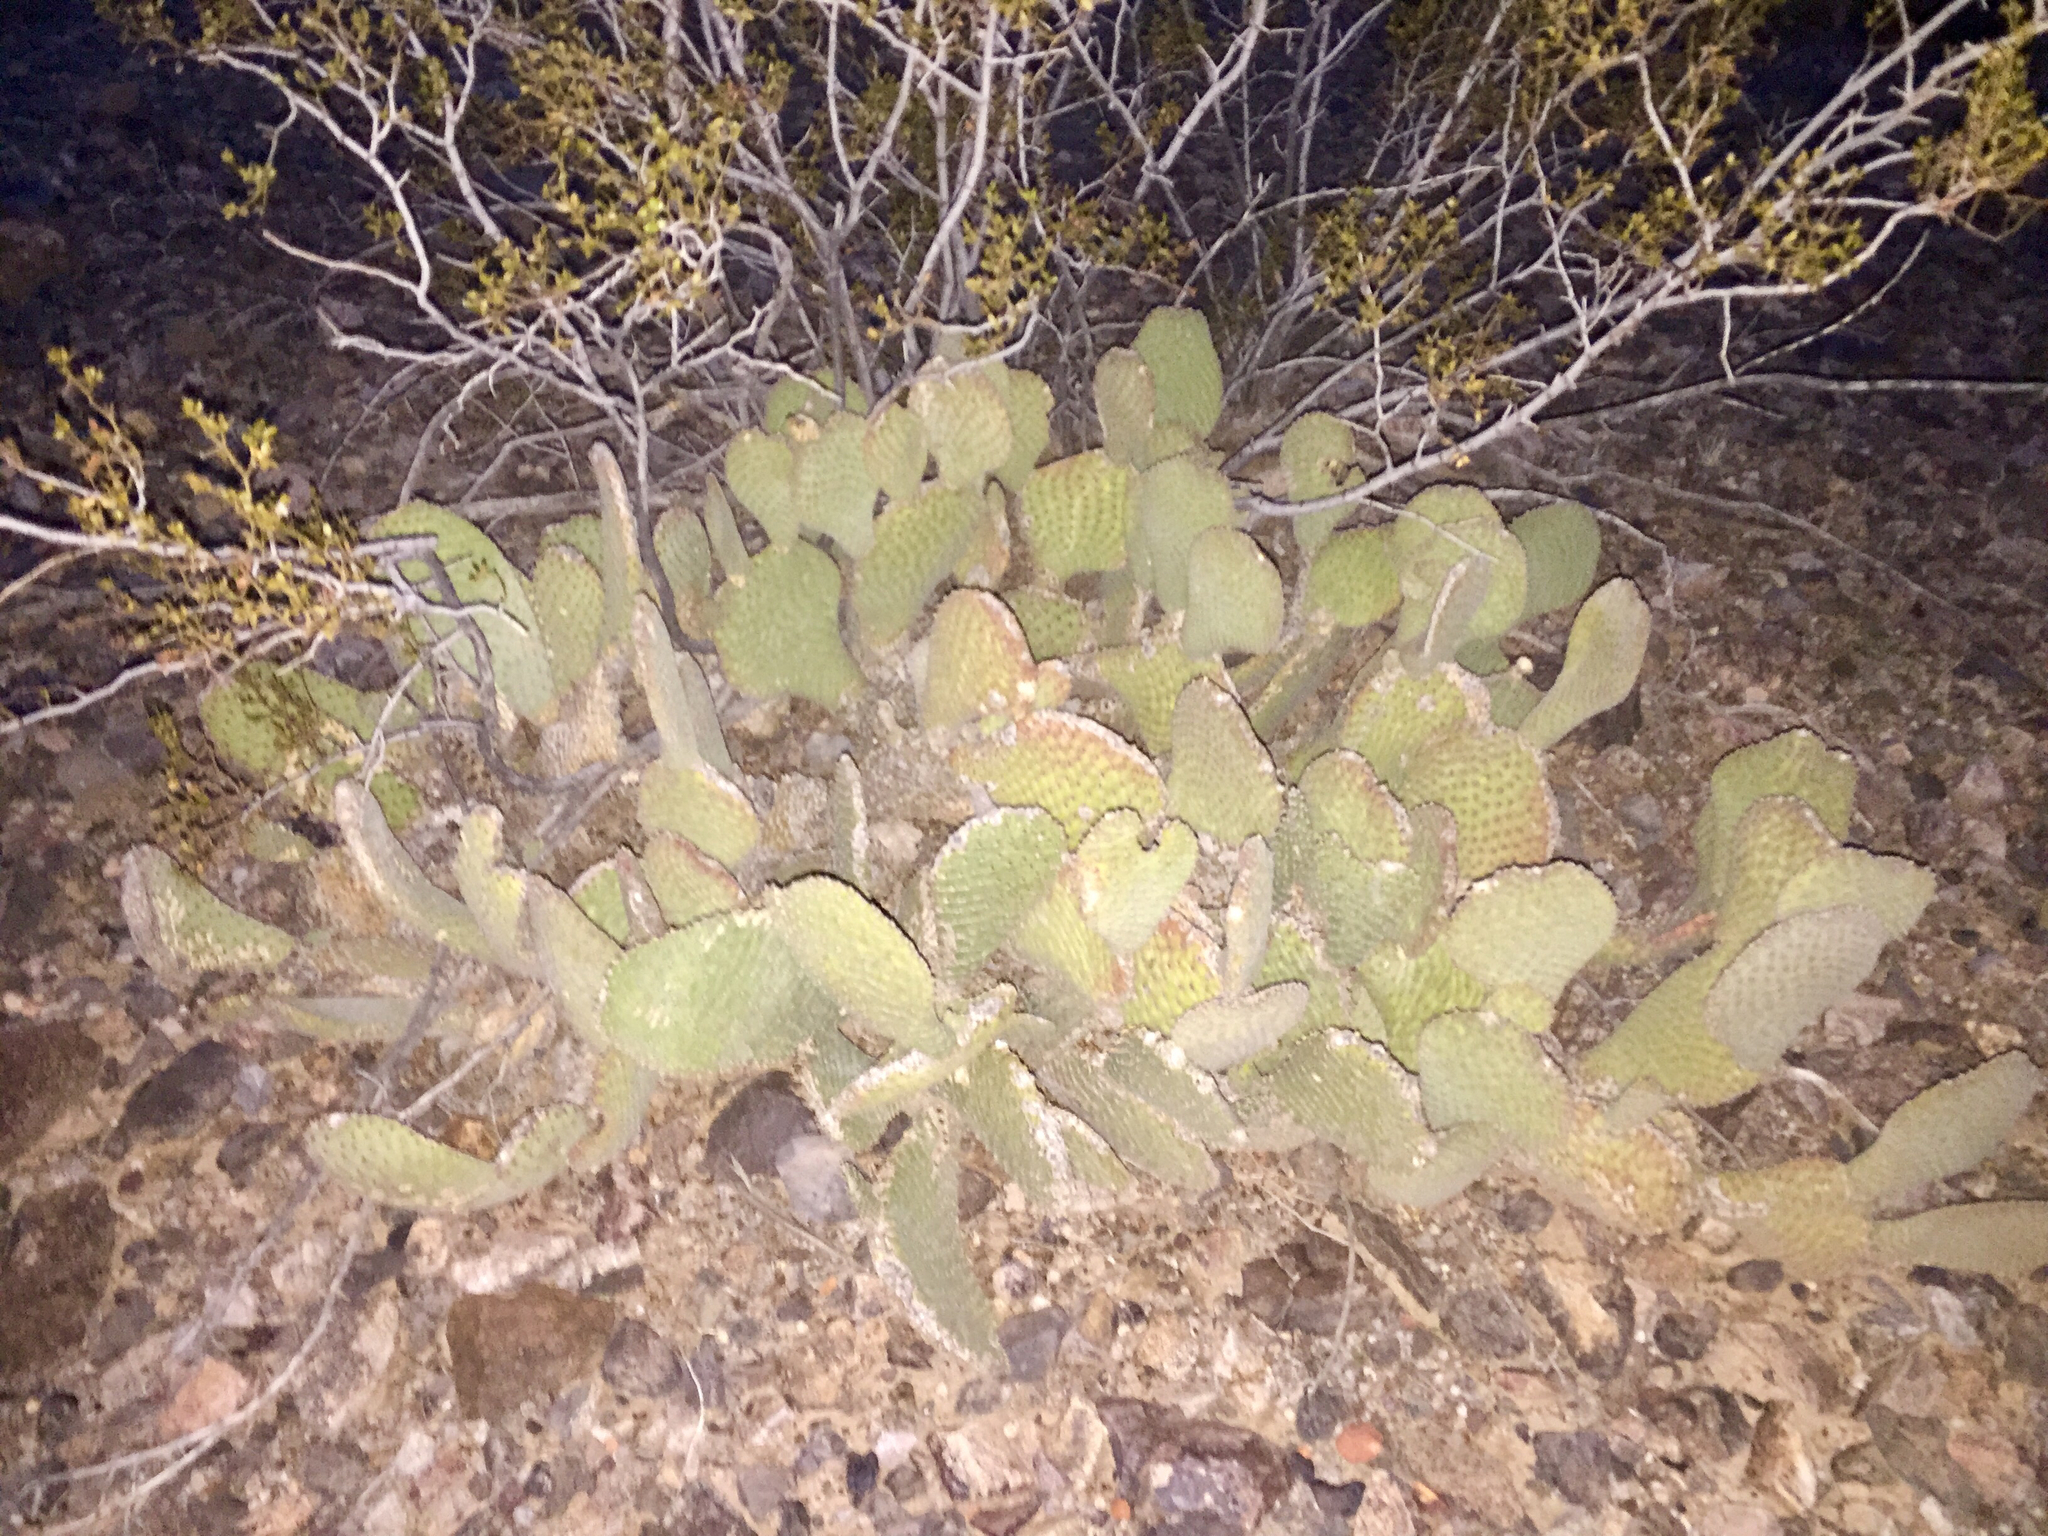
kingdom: Plantae
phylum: Tracheophyta
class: Magnoliopsida
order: Caryophyllales
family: Cactaceae
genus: Opuntia
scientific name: Opuntia basilaris
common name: Beavertail prickly-pear
